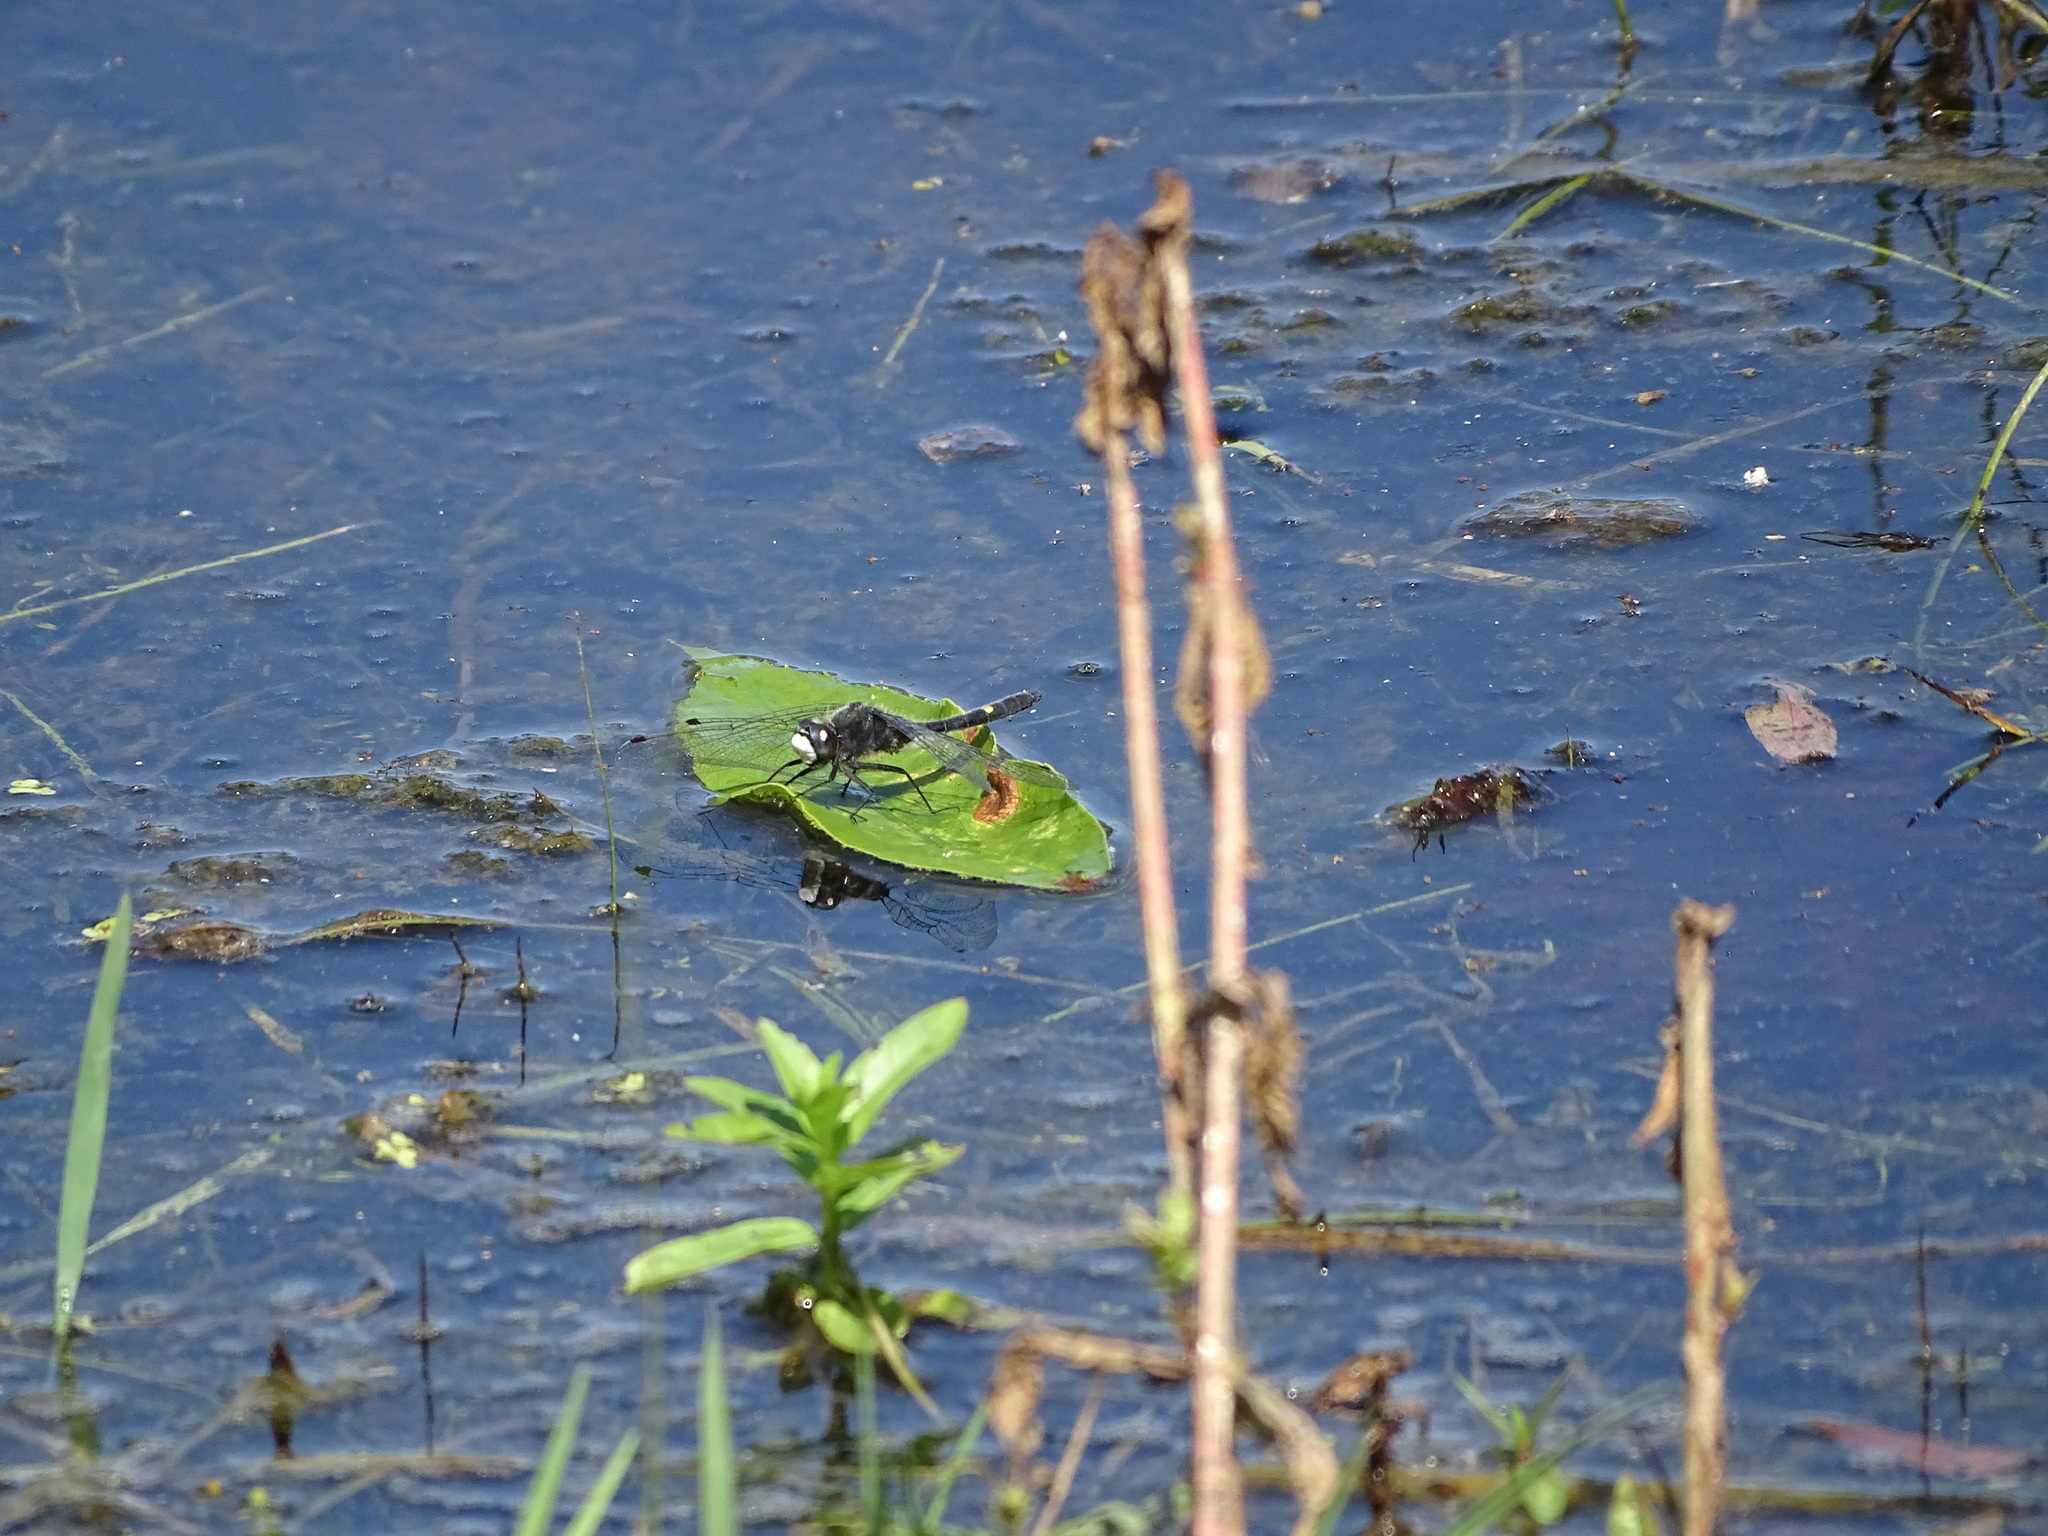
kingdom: Animalia
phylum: Arthropoda
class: Insecta
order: Odonata
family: Libellulidae
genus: Leucorrhinia
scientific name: Leucorrhinia intacta
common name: Dot-tailed whiteface
